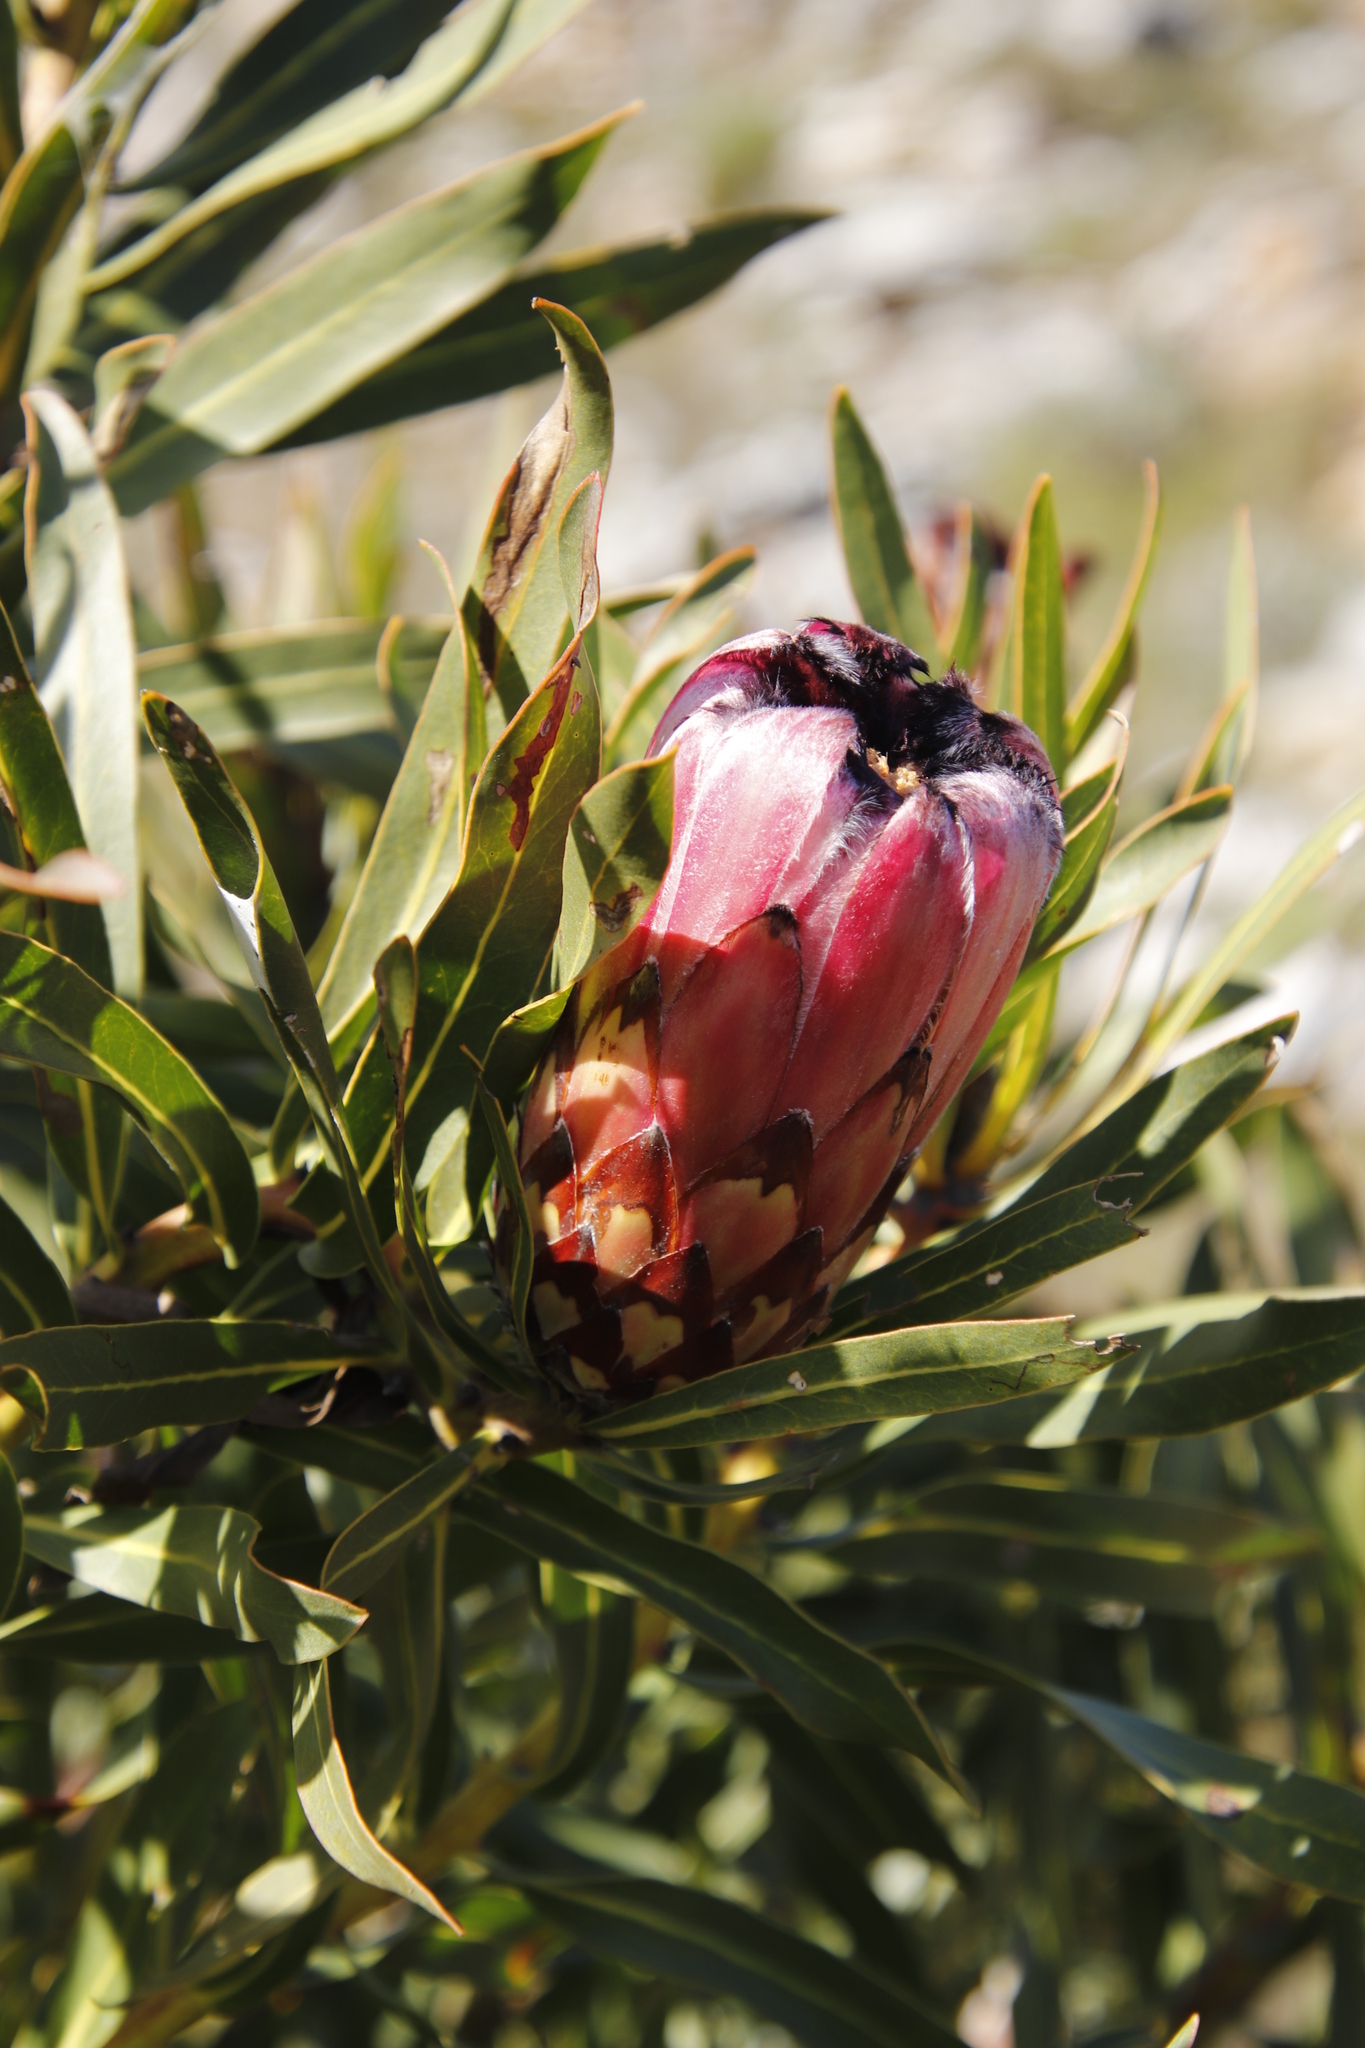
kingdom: Plantae
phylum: Tracheophyta
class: Magnoliopsida
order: Proteales
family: Proteaceae
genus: Protea
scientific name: Protea
